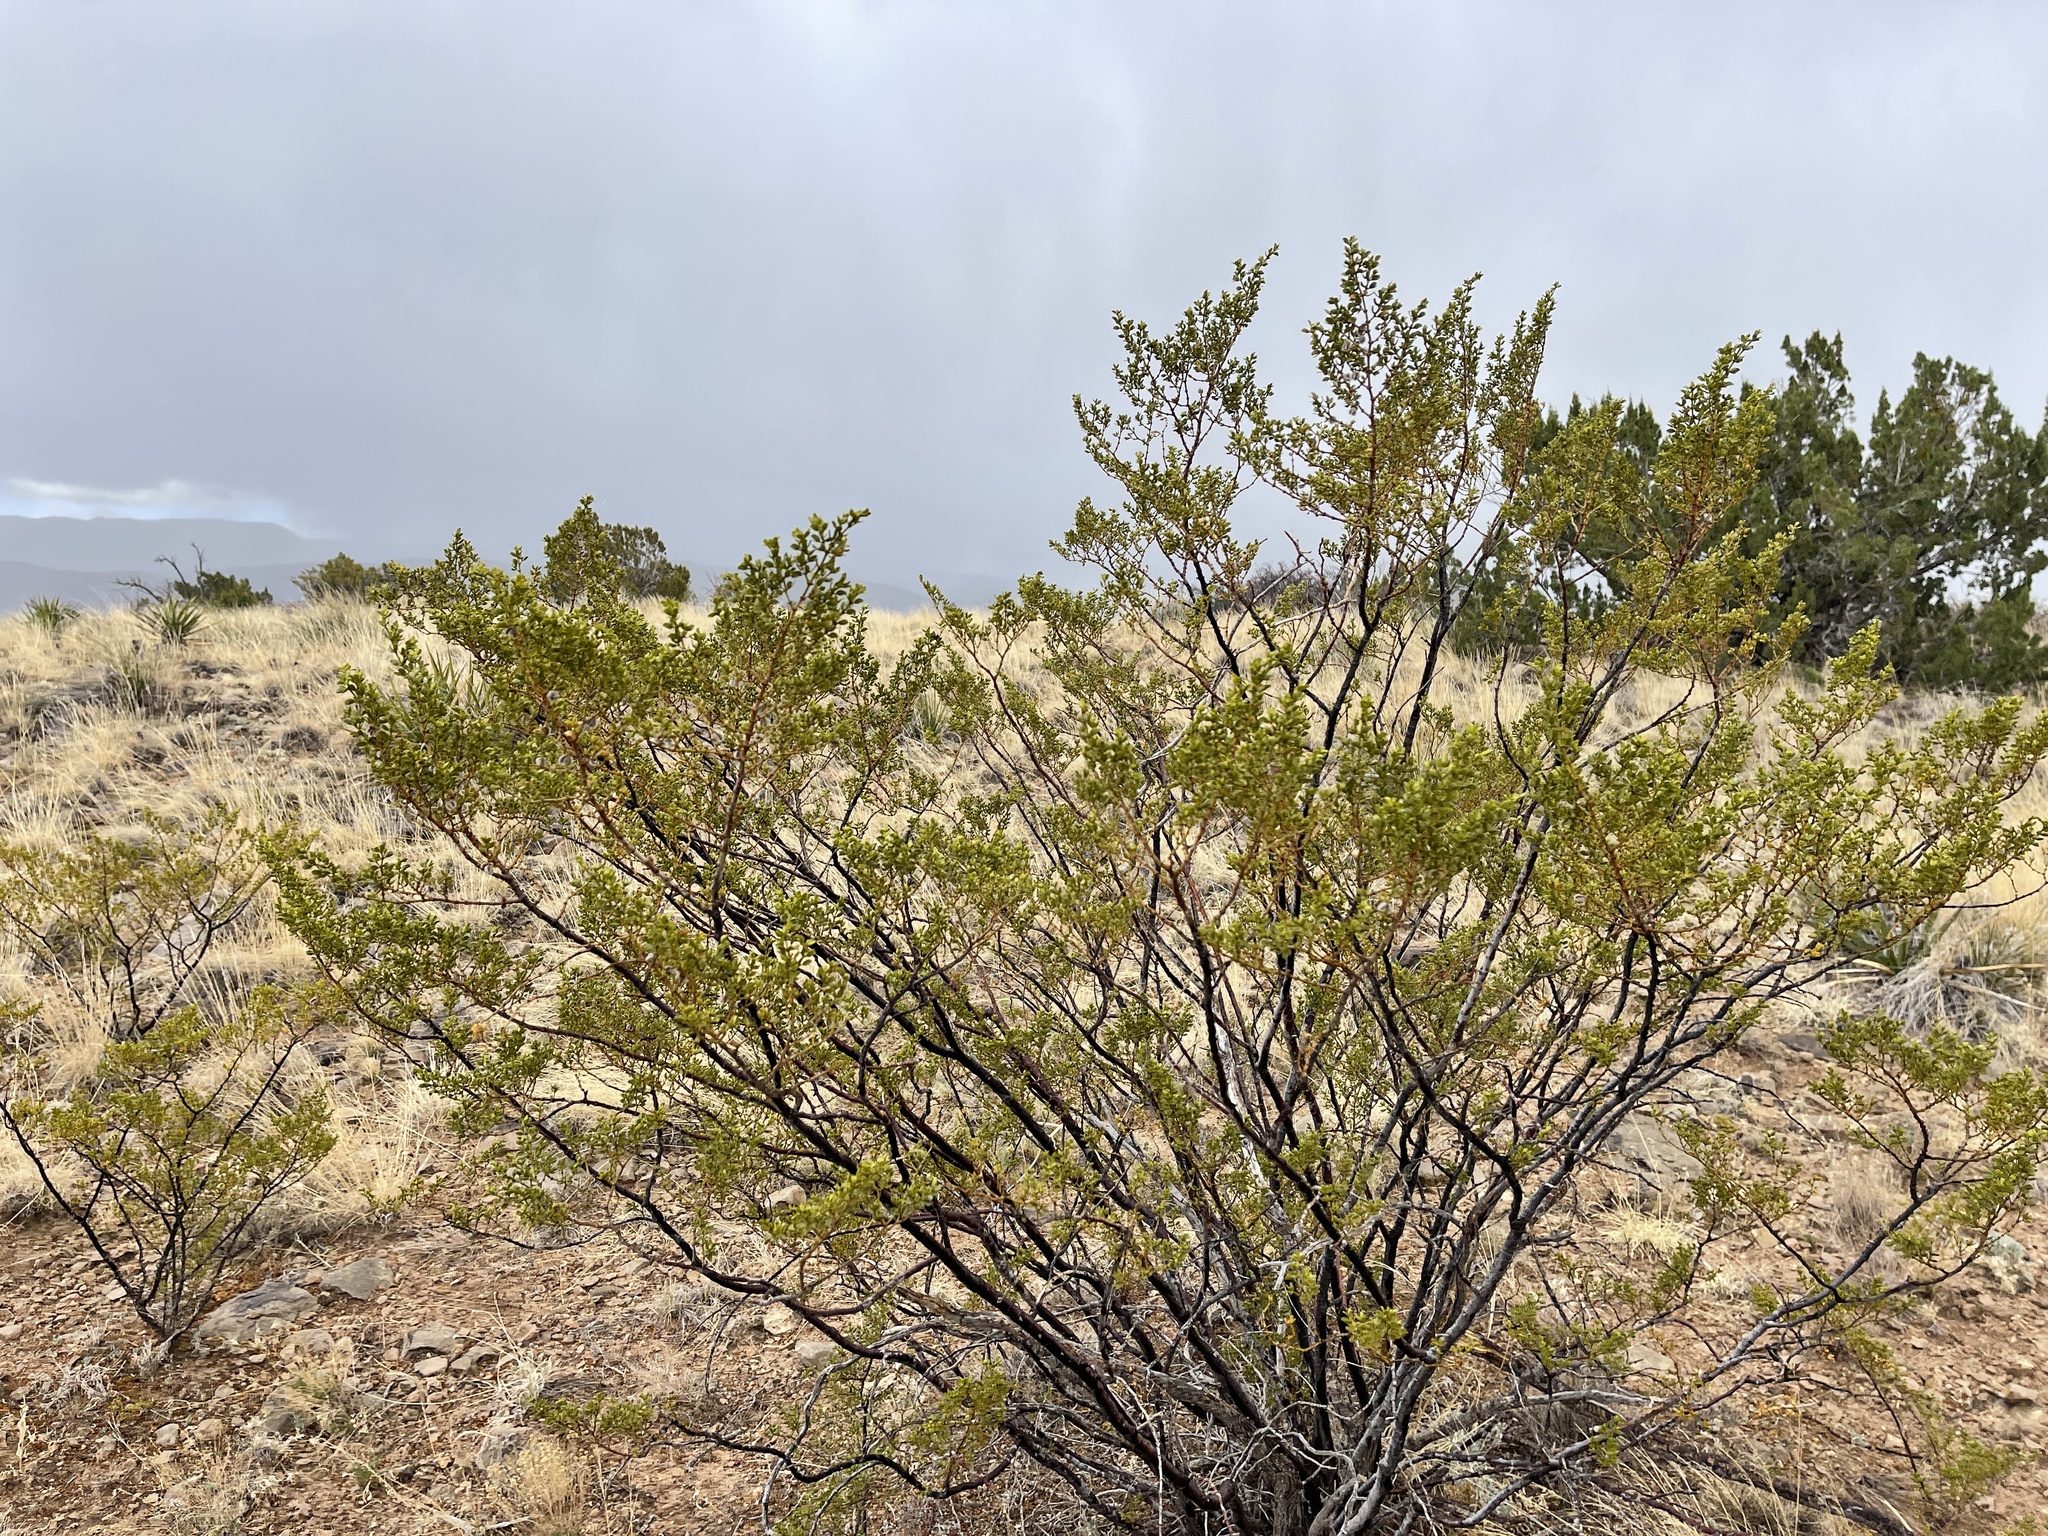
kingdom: Plantae
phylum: Tracheophyta
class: Magnoliopsida
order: Zygophyllales
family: Zygophyllaceae
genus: Larrea
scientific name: Larrea tridentata
